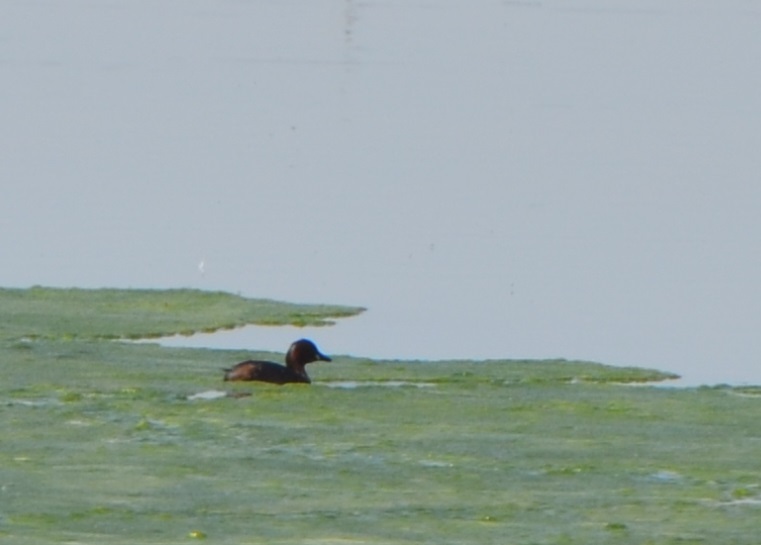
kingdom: Animalia
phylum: Chordata
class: Aves
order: Podicipediformes
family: Podicipedidae
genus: Tachybaptus
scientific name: Tachybaptus ruficollis
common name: Little grebe
